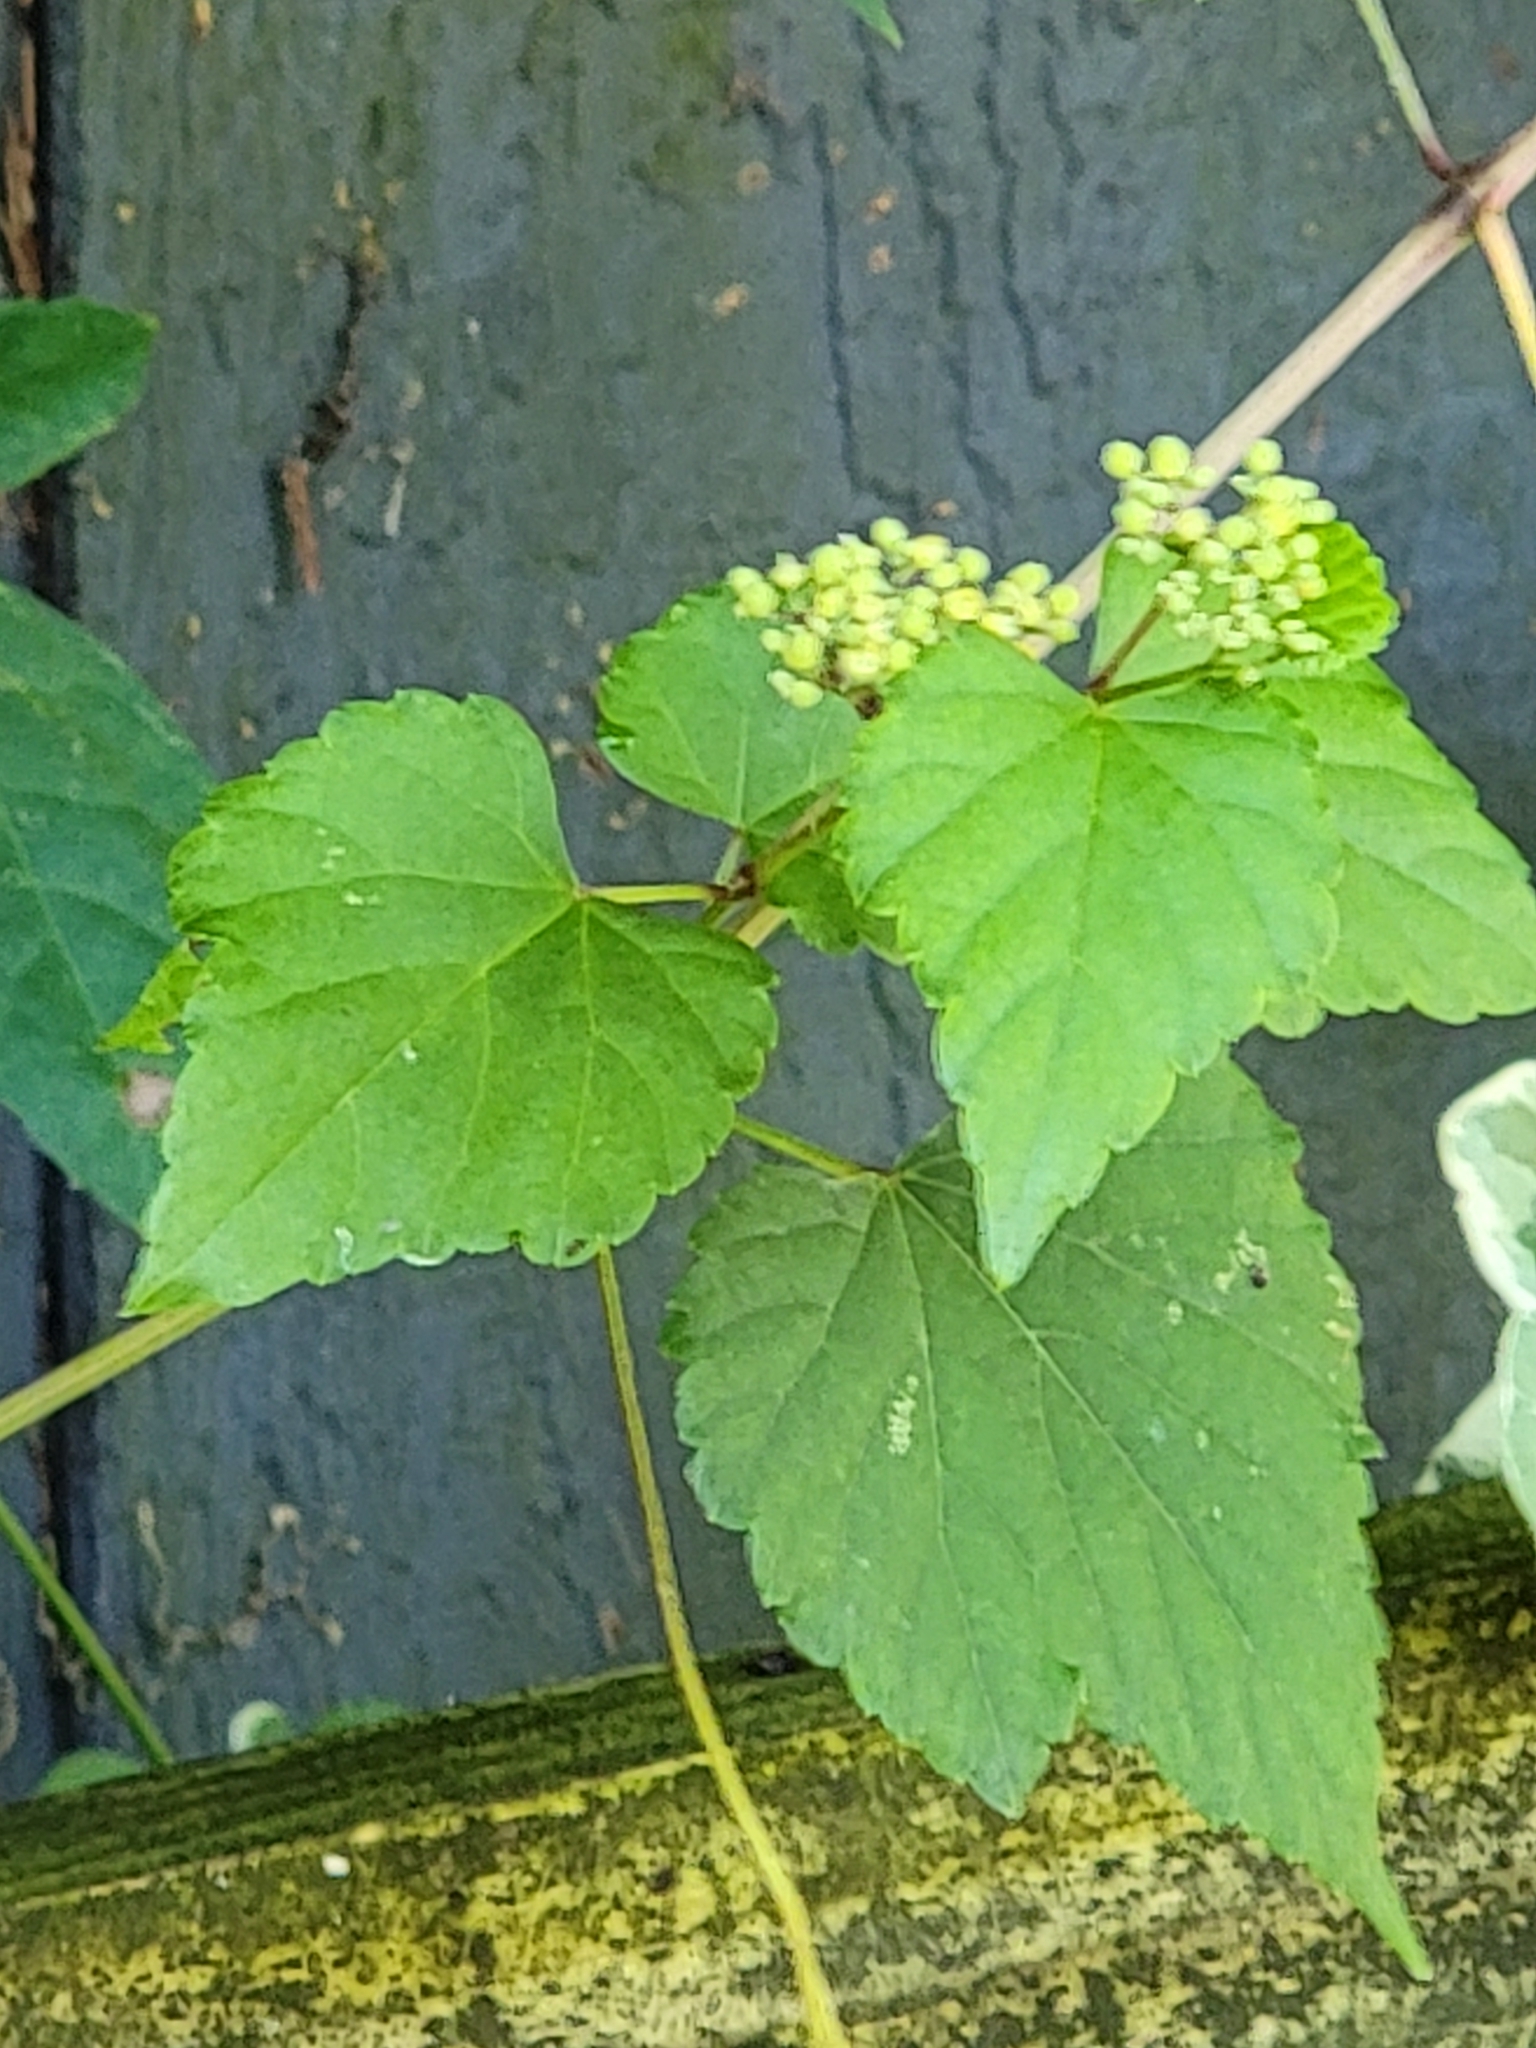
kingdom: Plantae
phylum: Tracheophyta
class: Magnoliopsida
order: Vitales
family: Vitaceae
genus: Ampelopsis
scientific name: Ampelopsis glandulosa
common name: Amur peppervine
